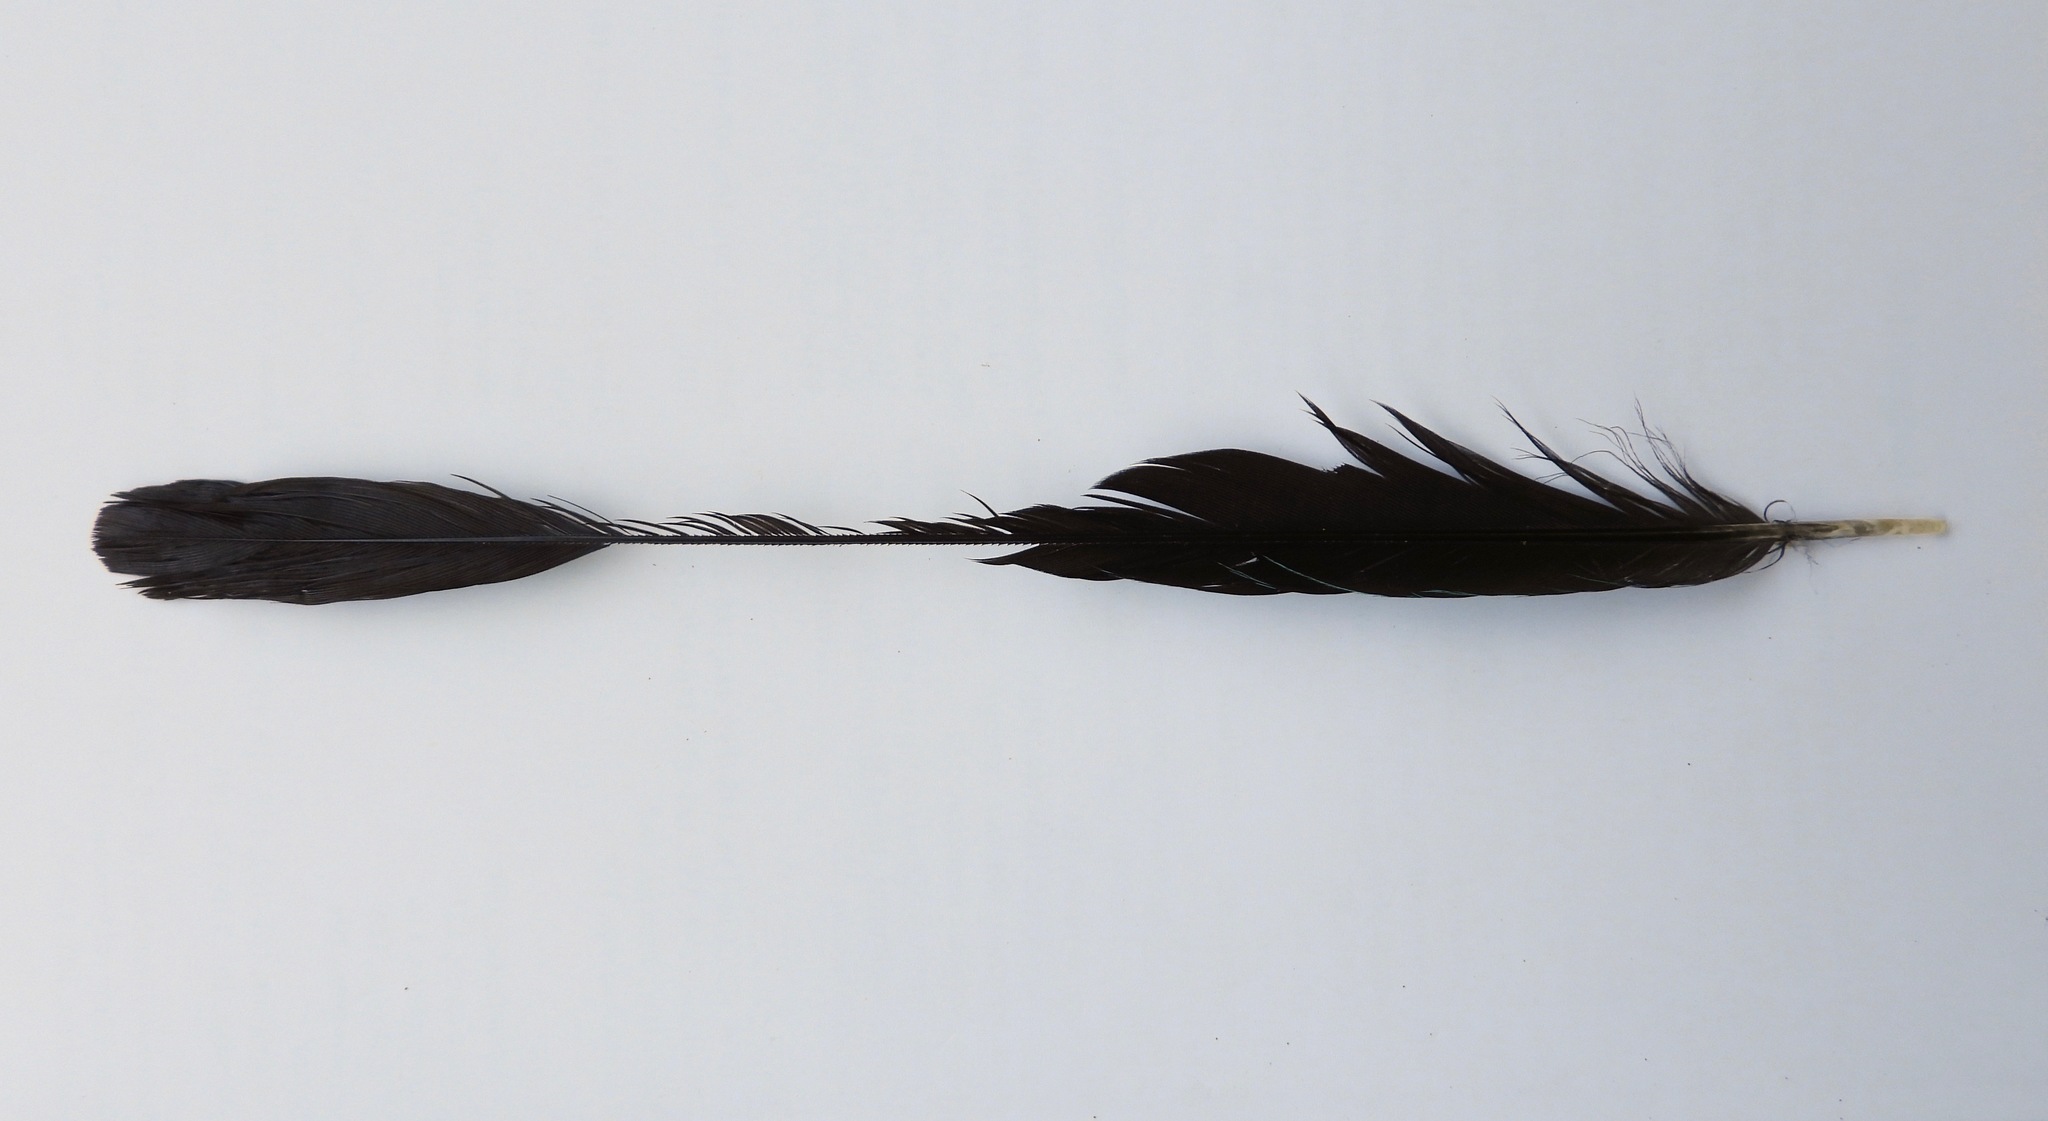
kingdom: Animalia
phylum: Chordata
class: Aves
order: Coraciiformes
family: Momotidae
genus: Eumomota
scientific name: Eumomota superciliosa
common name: Turquoise-browed motmot
